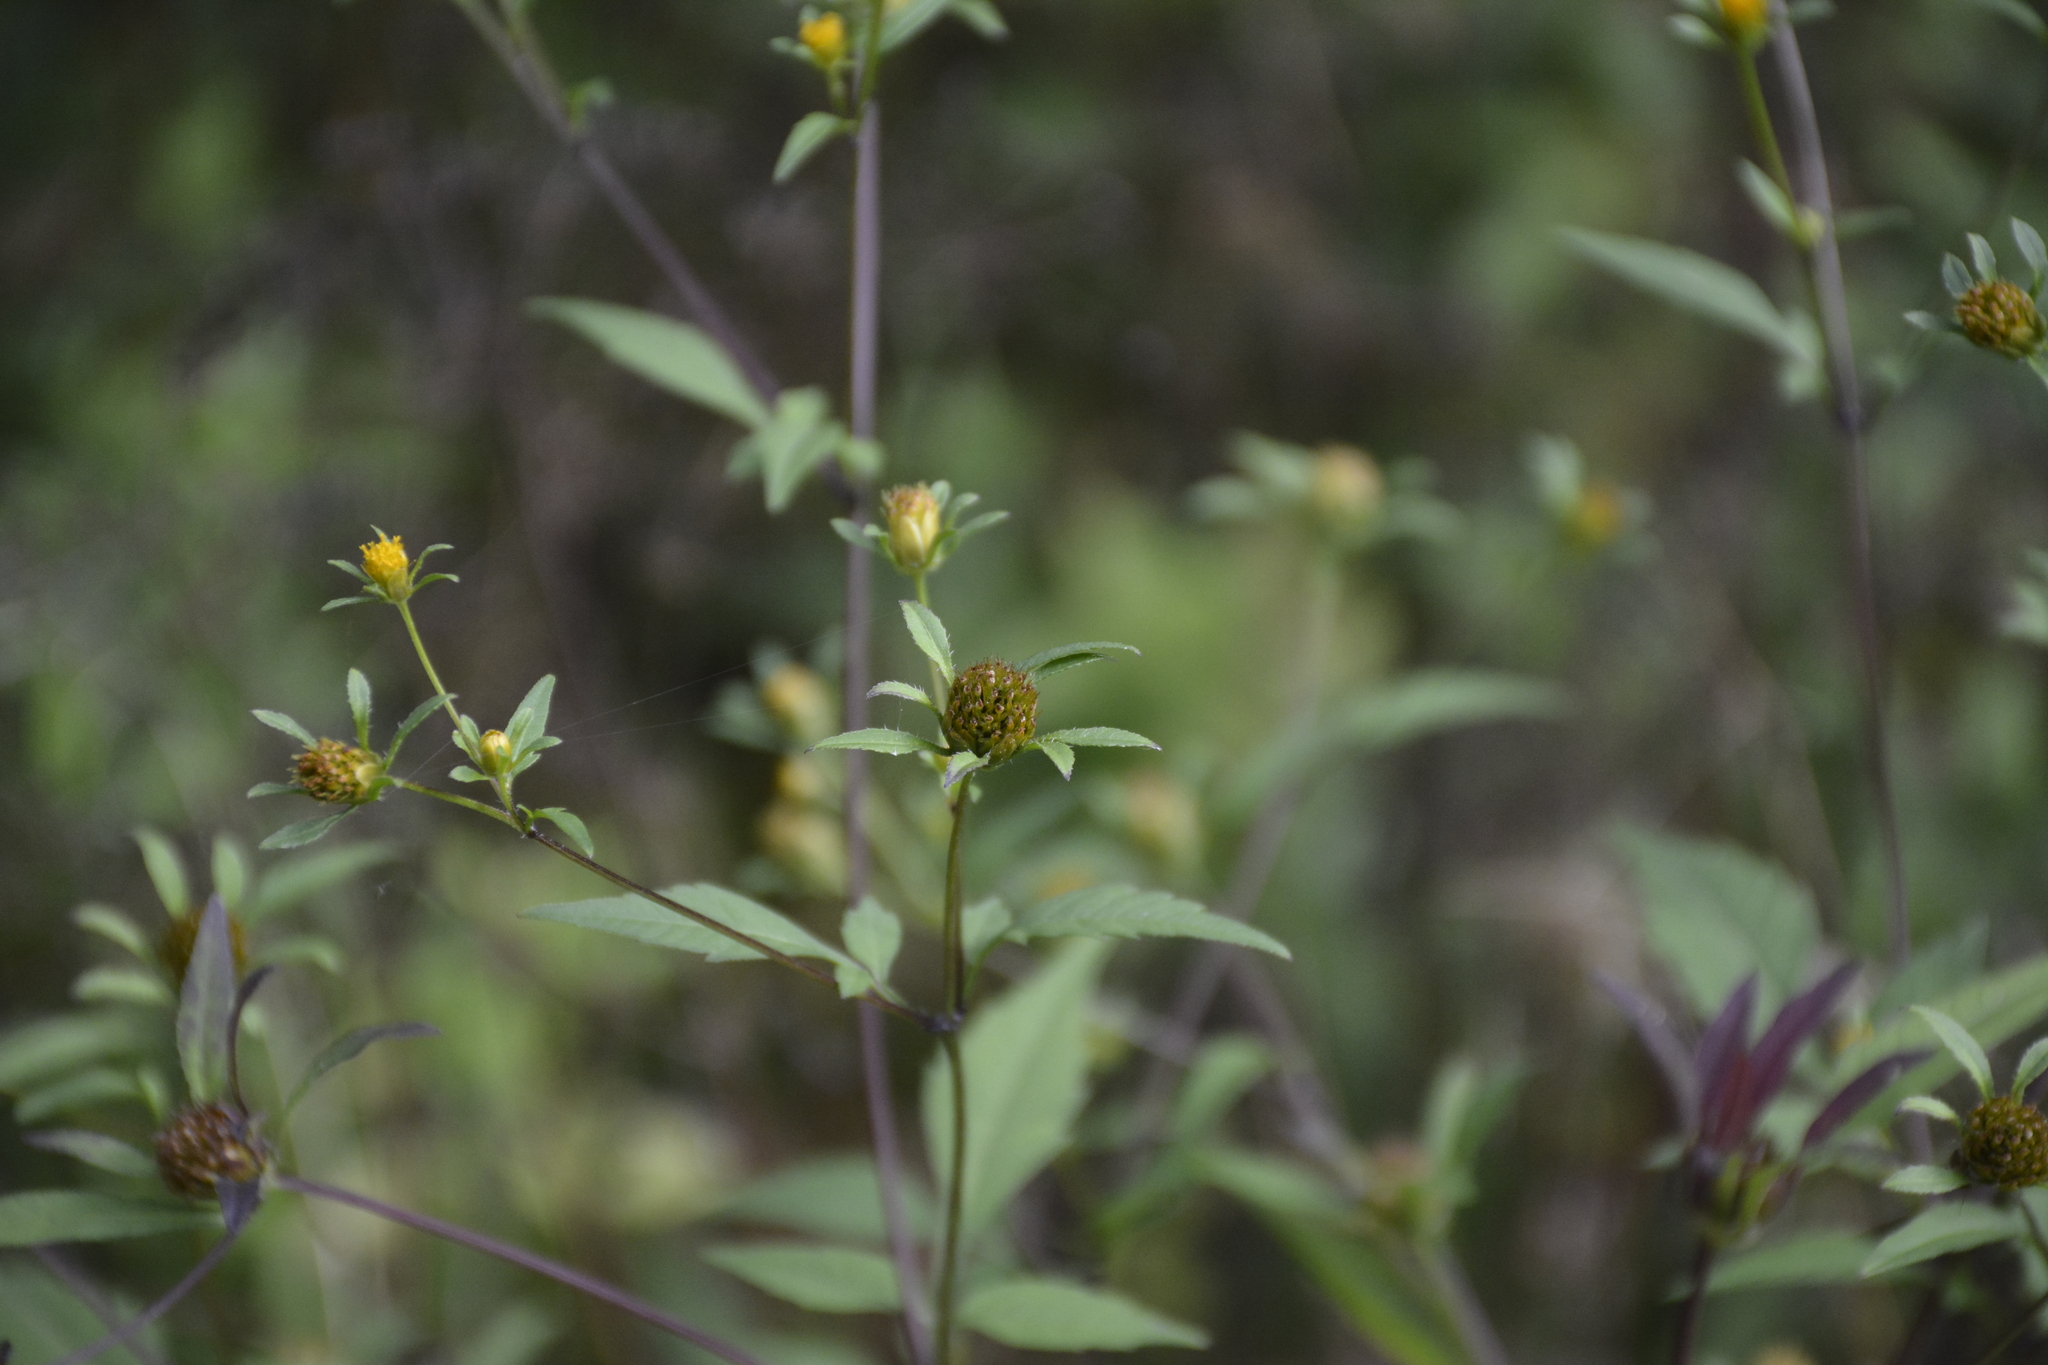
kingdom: Plantae
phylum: Tracheophyta
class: Magnoliopsida
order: Asterales
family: Asteraceae
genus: Bidens
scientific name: Bidens frondosa
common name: Beggarticks
